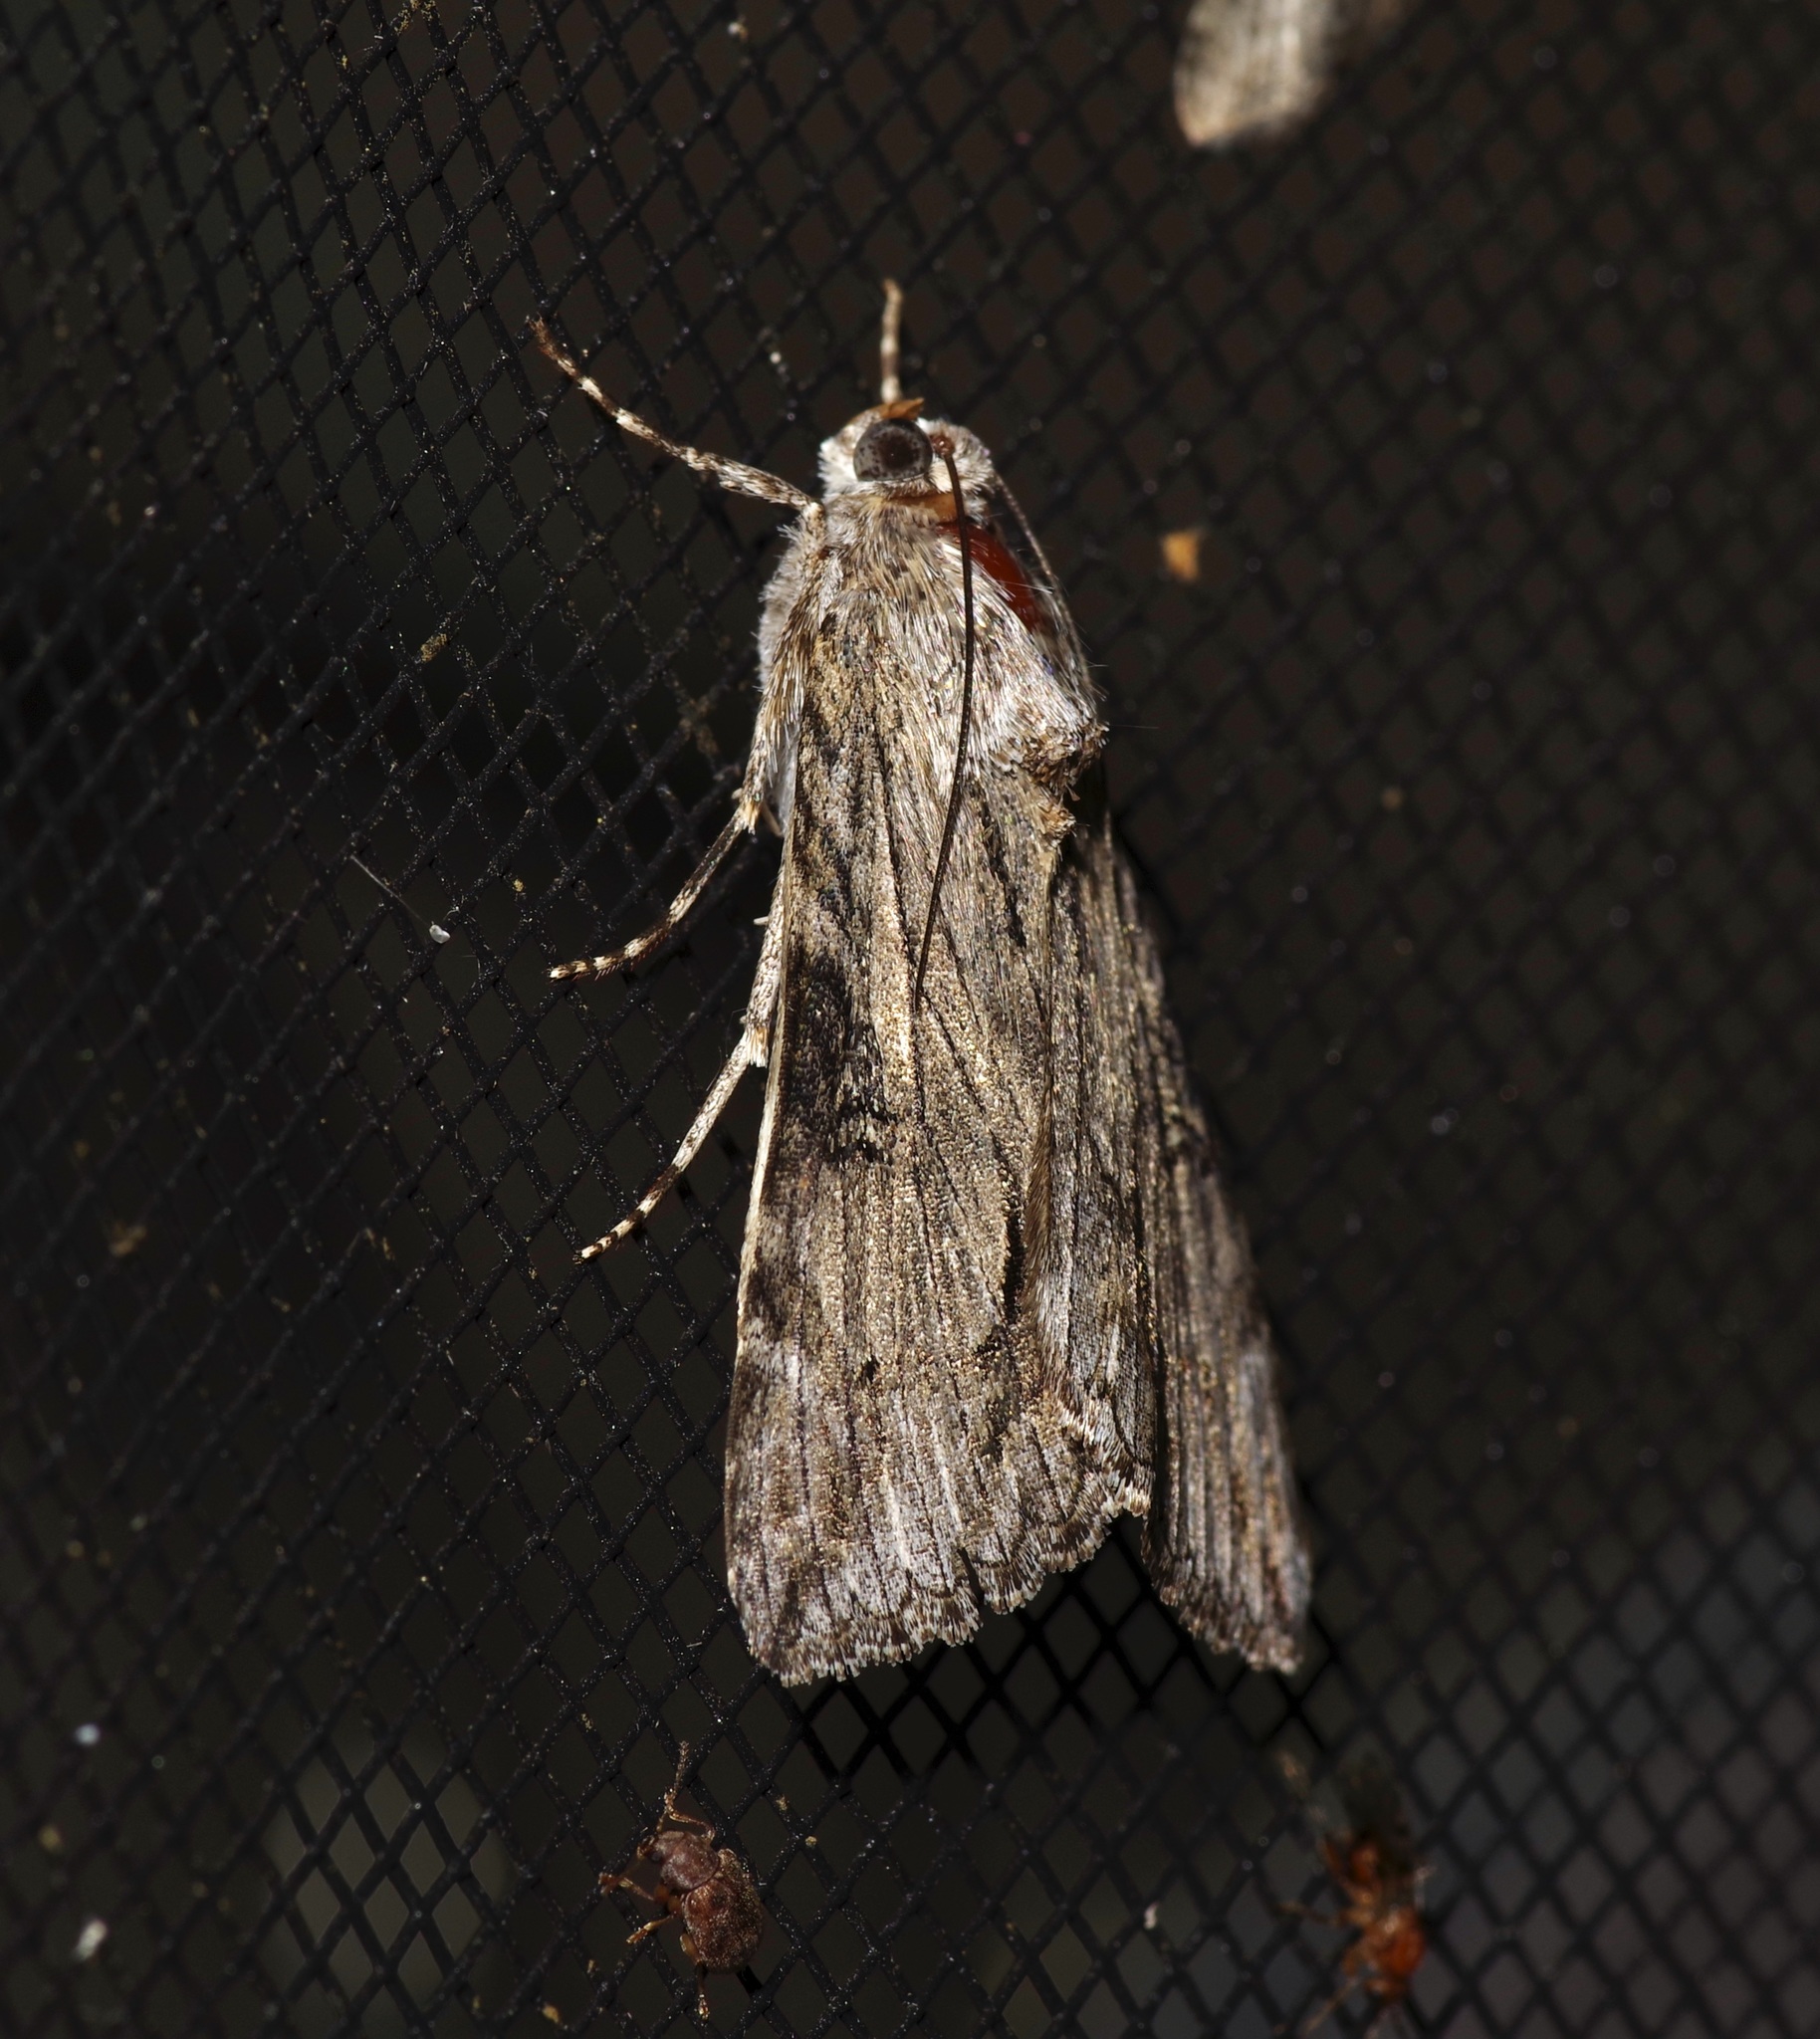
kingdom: Animalia
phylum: Arthropoda
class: Insecta
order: Lepidoptera
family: Erebidae
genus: Melipotis
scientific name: Melipotis jucunda
